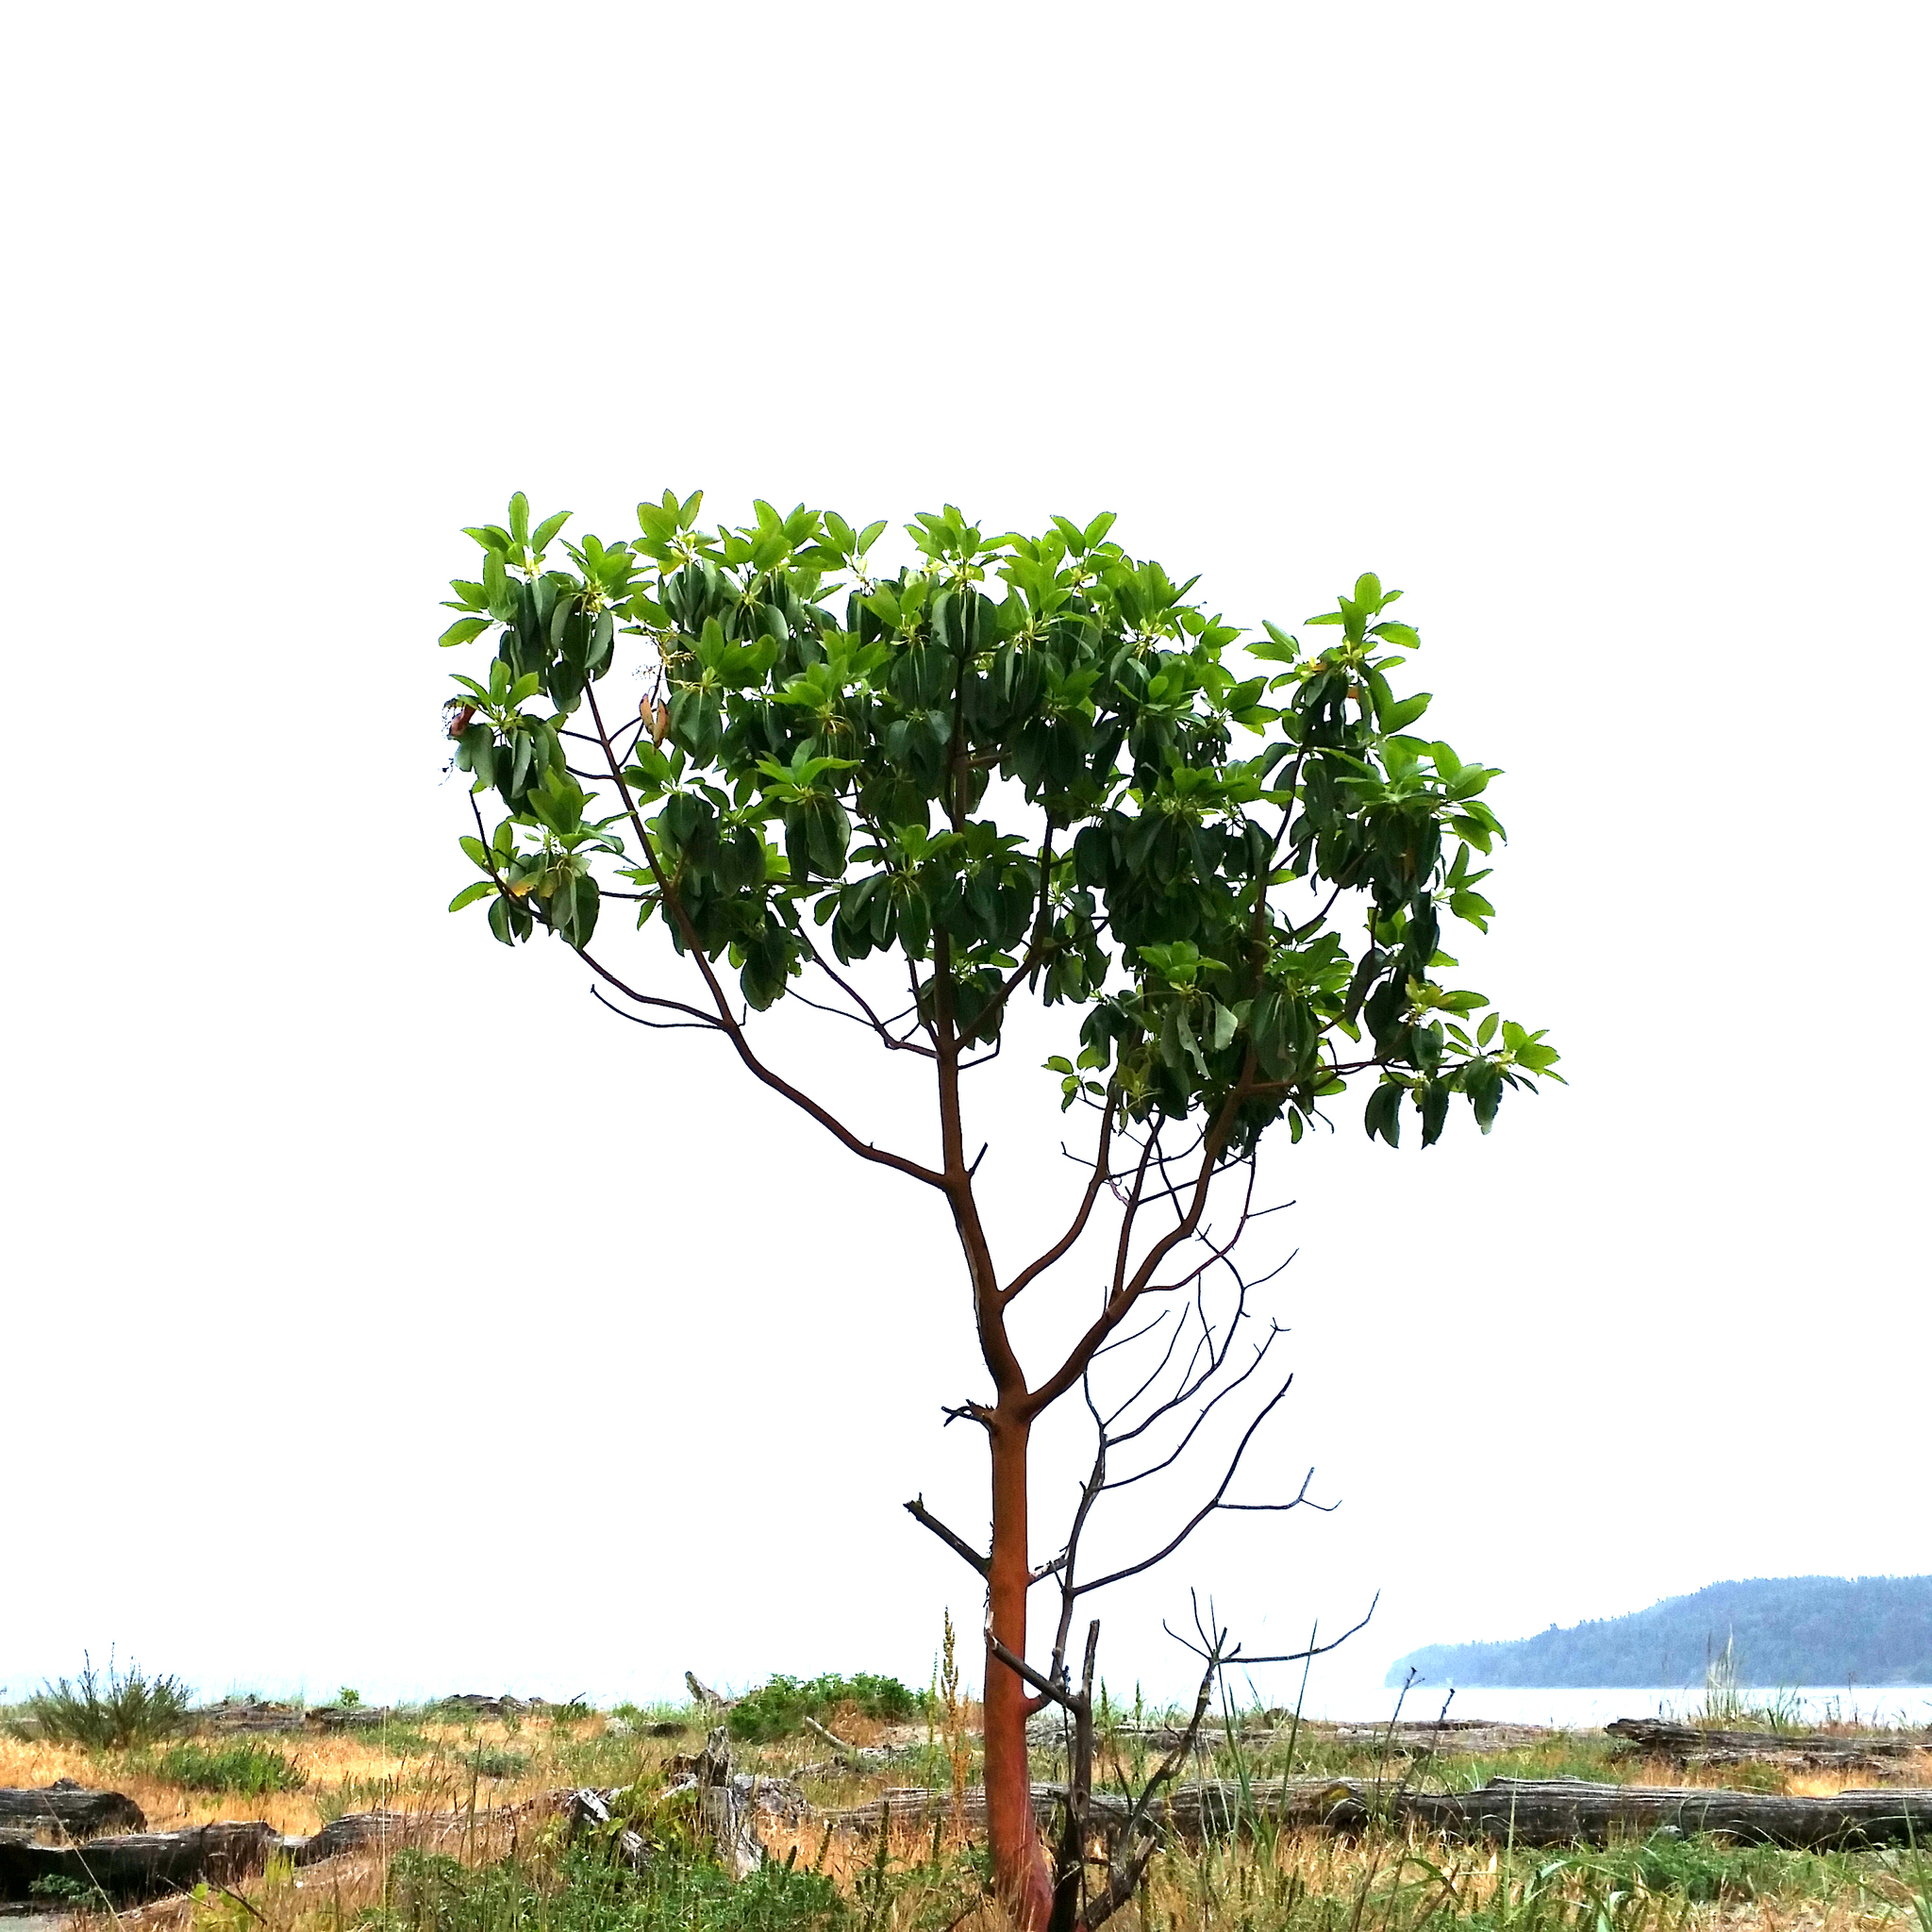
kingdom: Plantae
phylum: Tracheophyta
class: Magnoliopsida
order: Ericales
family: Ericaceae
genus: Arbutus
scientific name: Arbutus menziesii
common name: Pacific madrone
